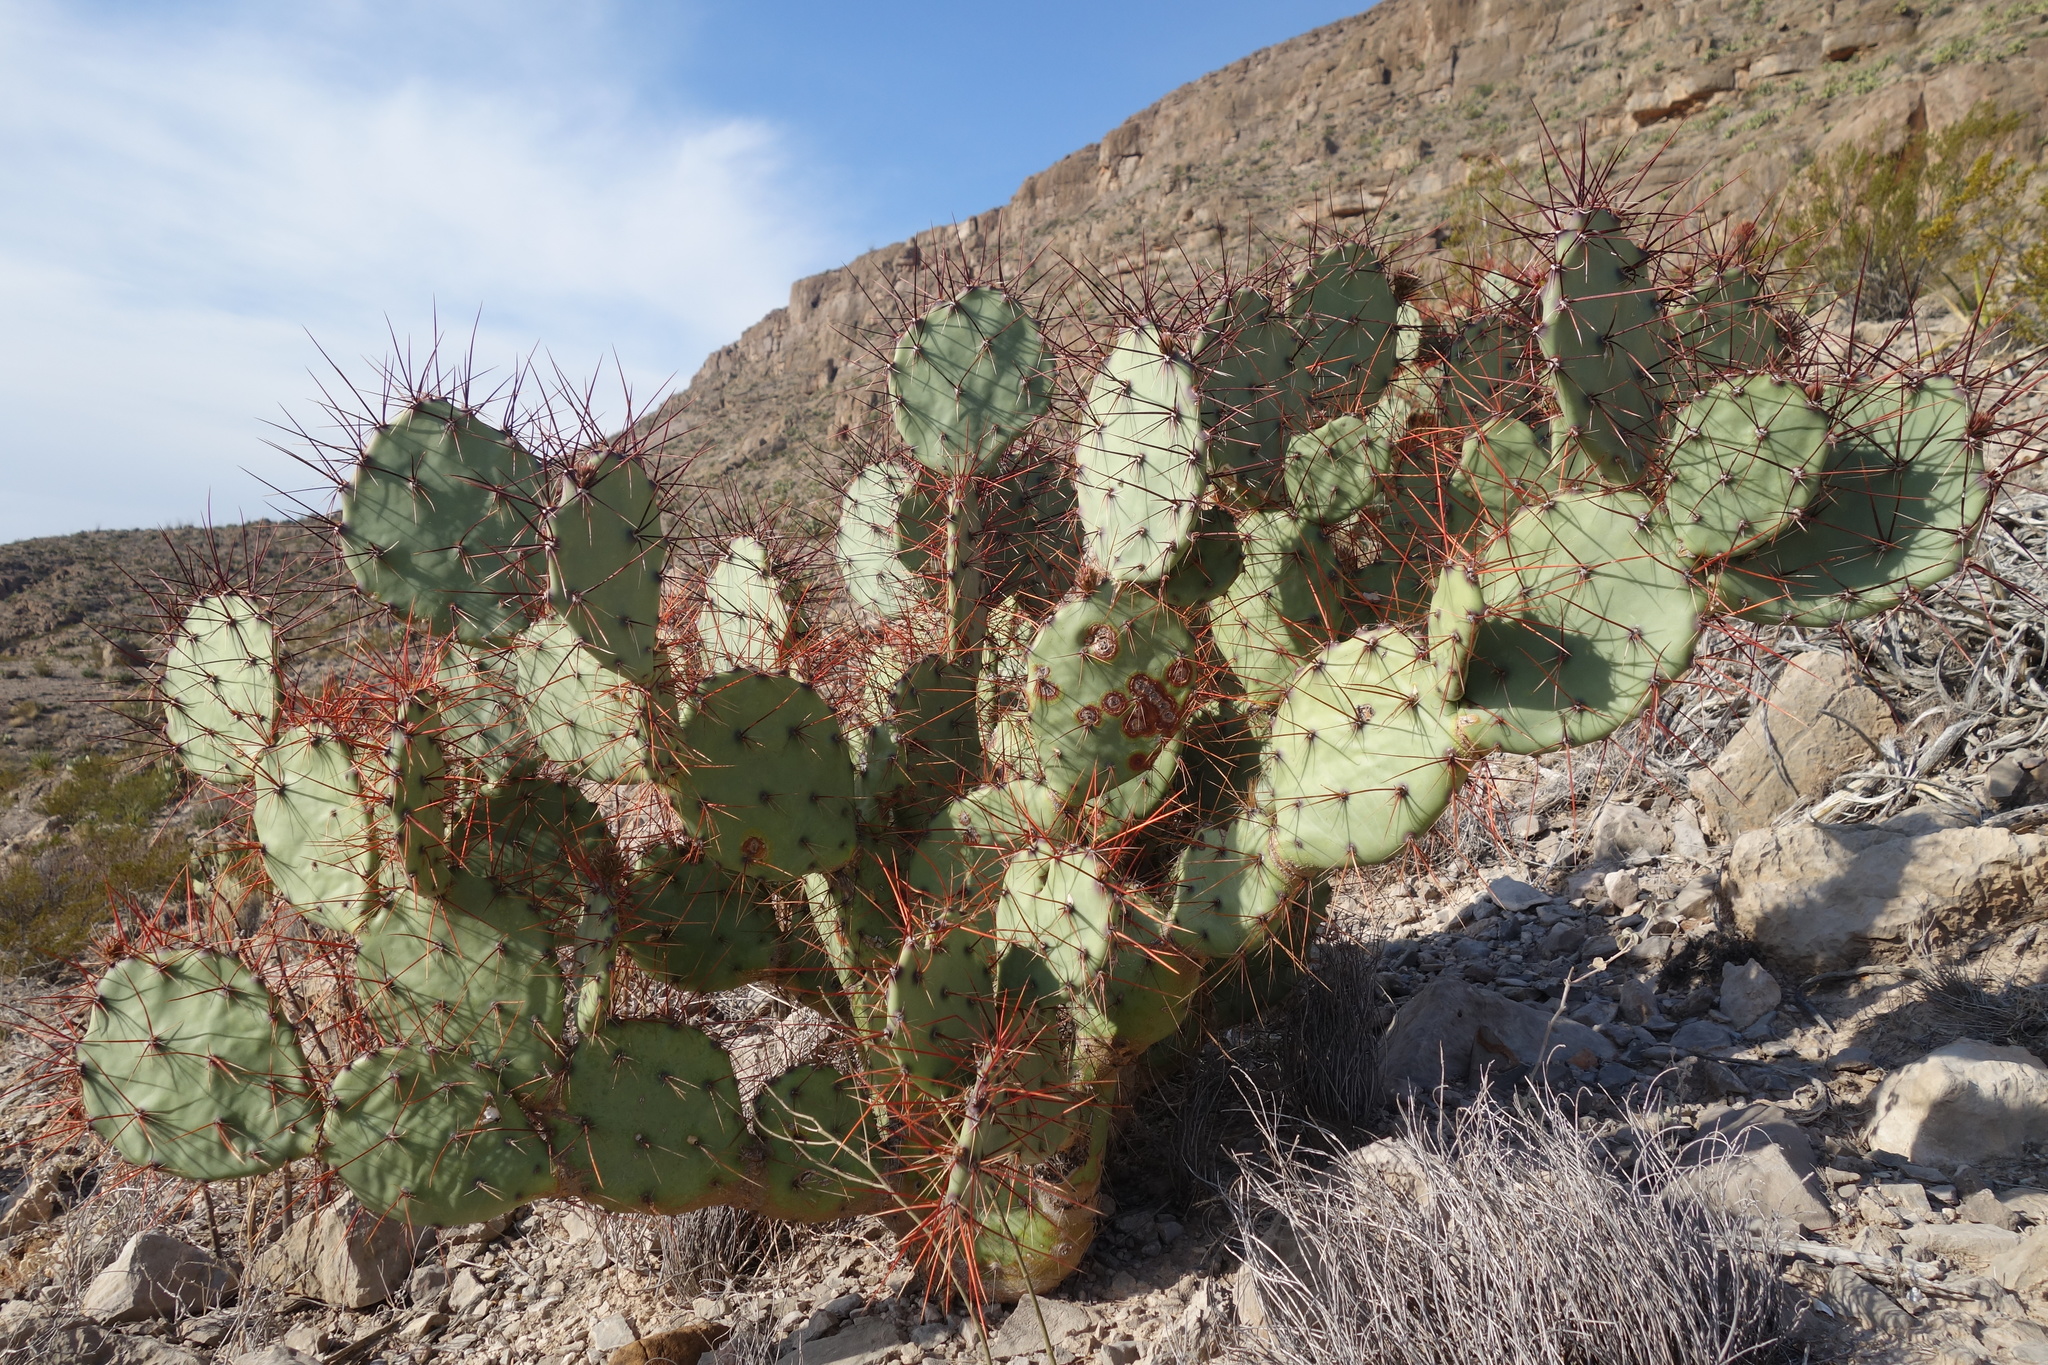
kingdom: Plantae
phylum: Tracheophyta
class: Magnoliopsida
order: Caryophyllales
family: Cactaceae
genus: Opuntia
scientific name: Opuntia spinosibacca
